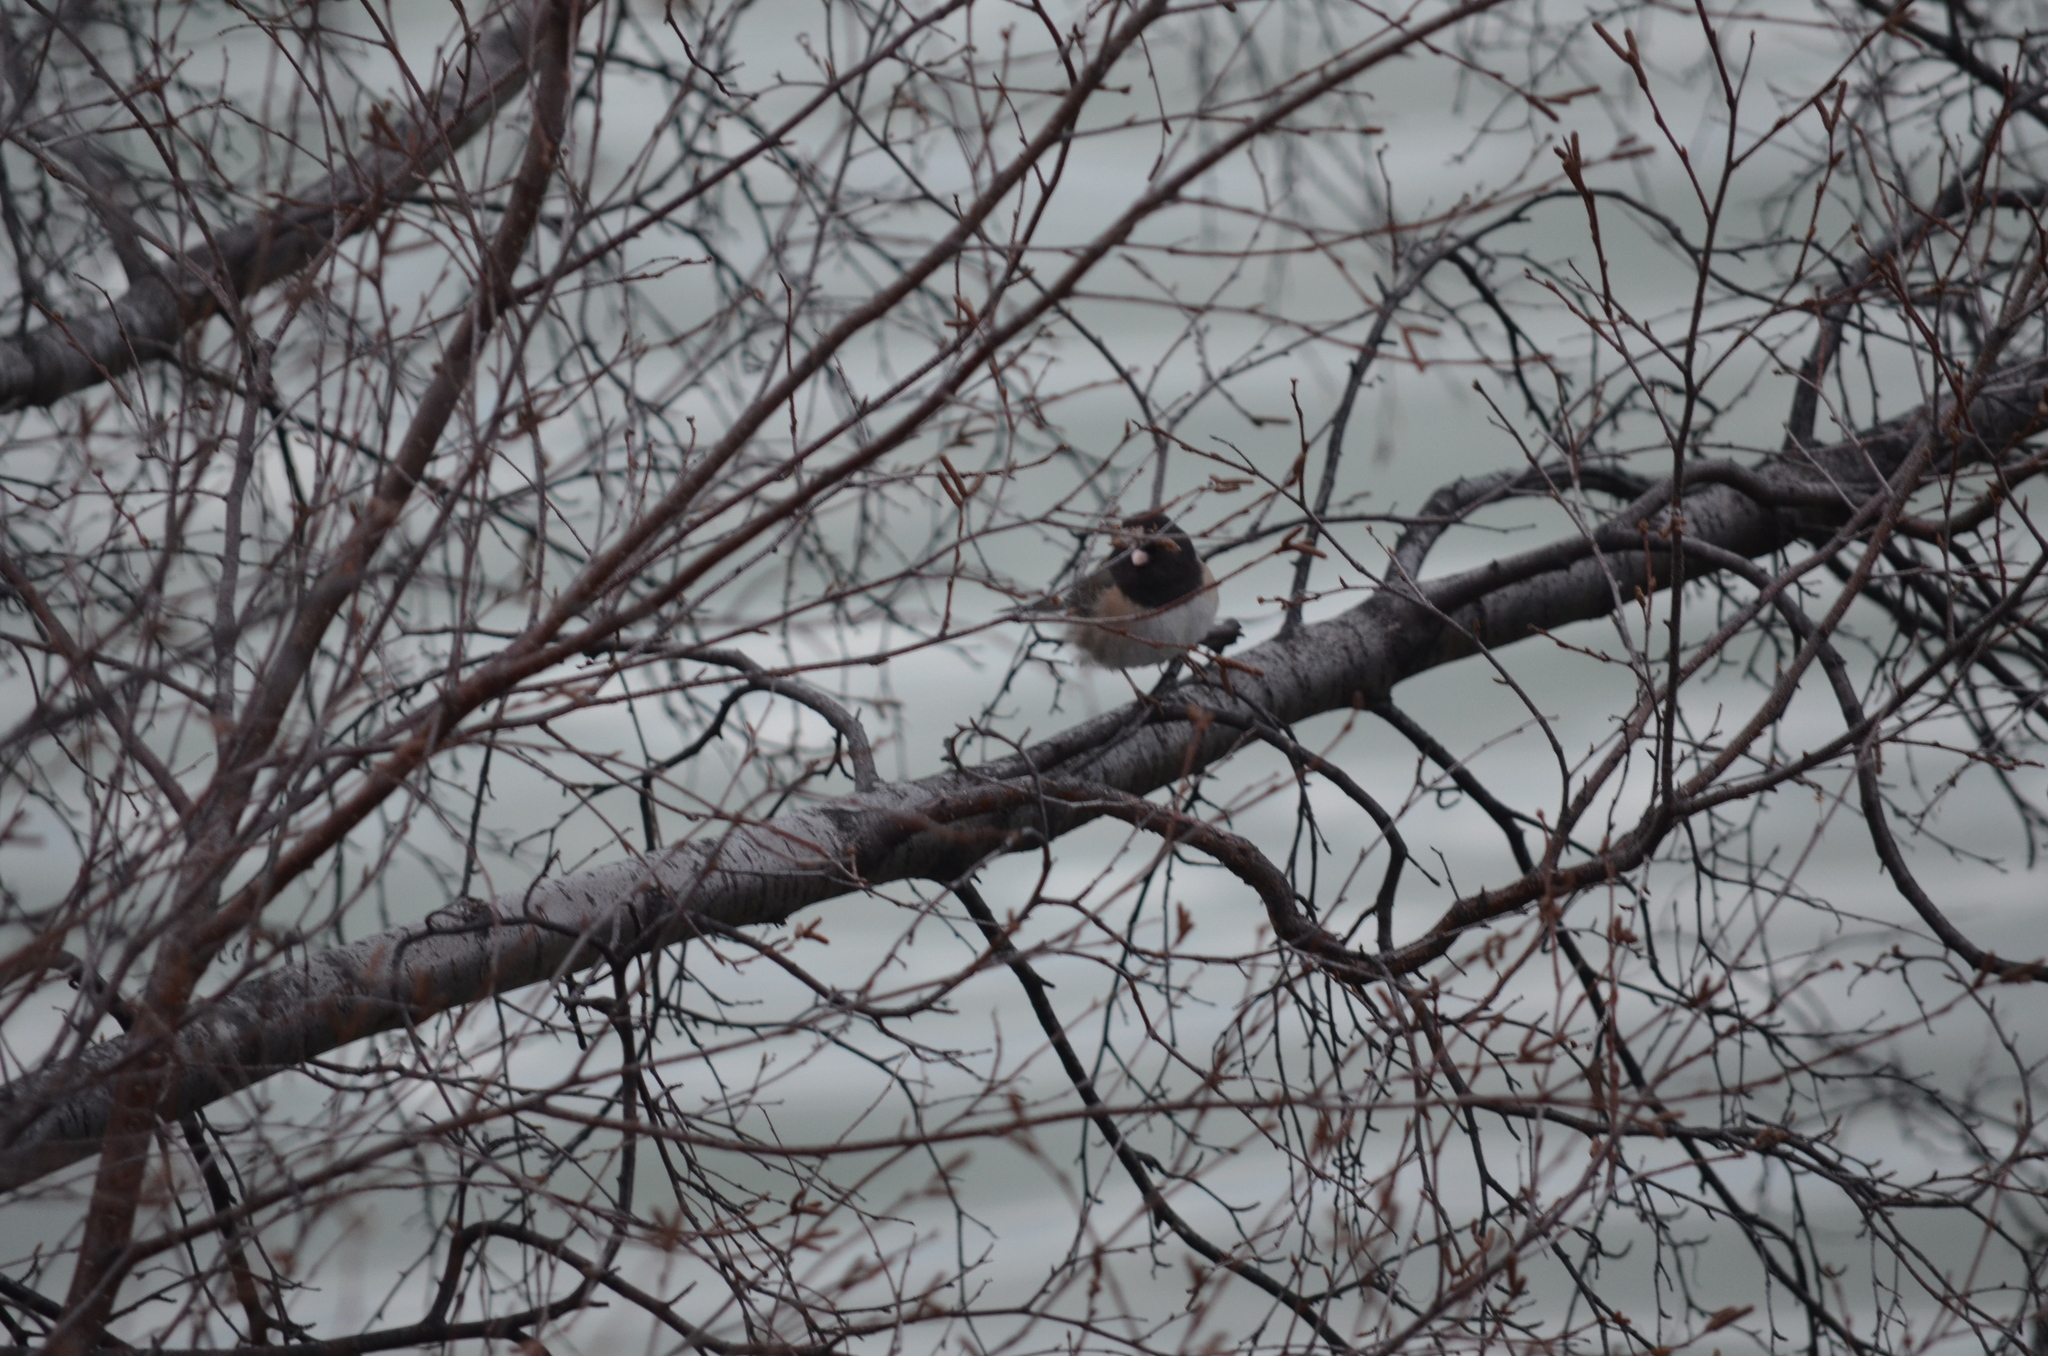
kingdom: Animalia
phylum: Chordata
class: Aves
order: Passeriformes
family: Passerellidae
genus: Junco
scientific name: Junco hyemalis
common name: Dark-eyed junco
